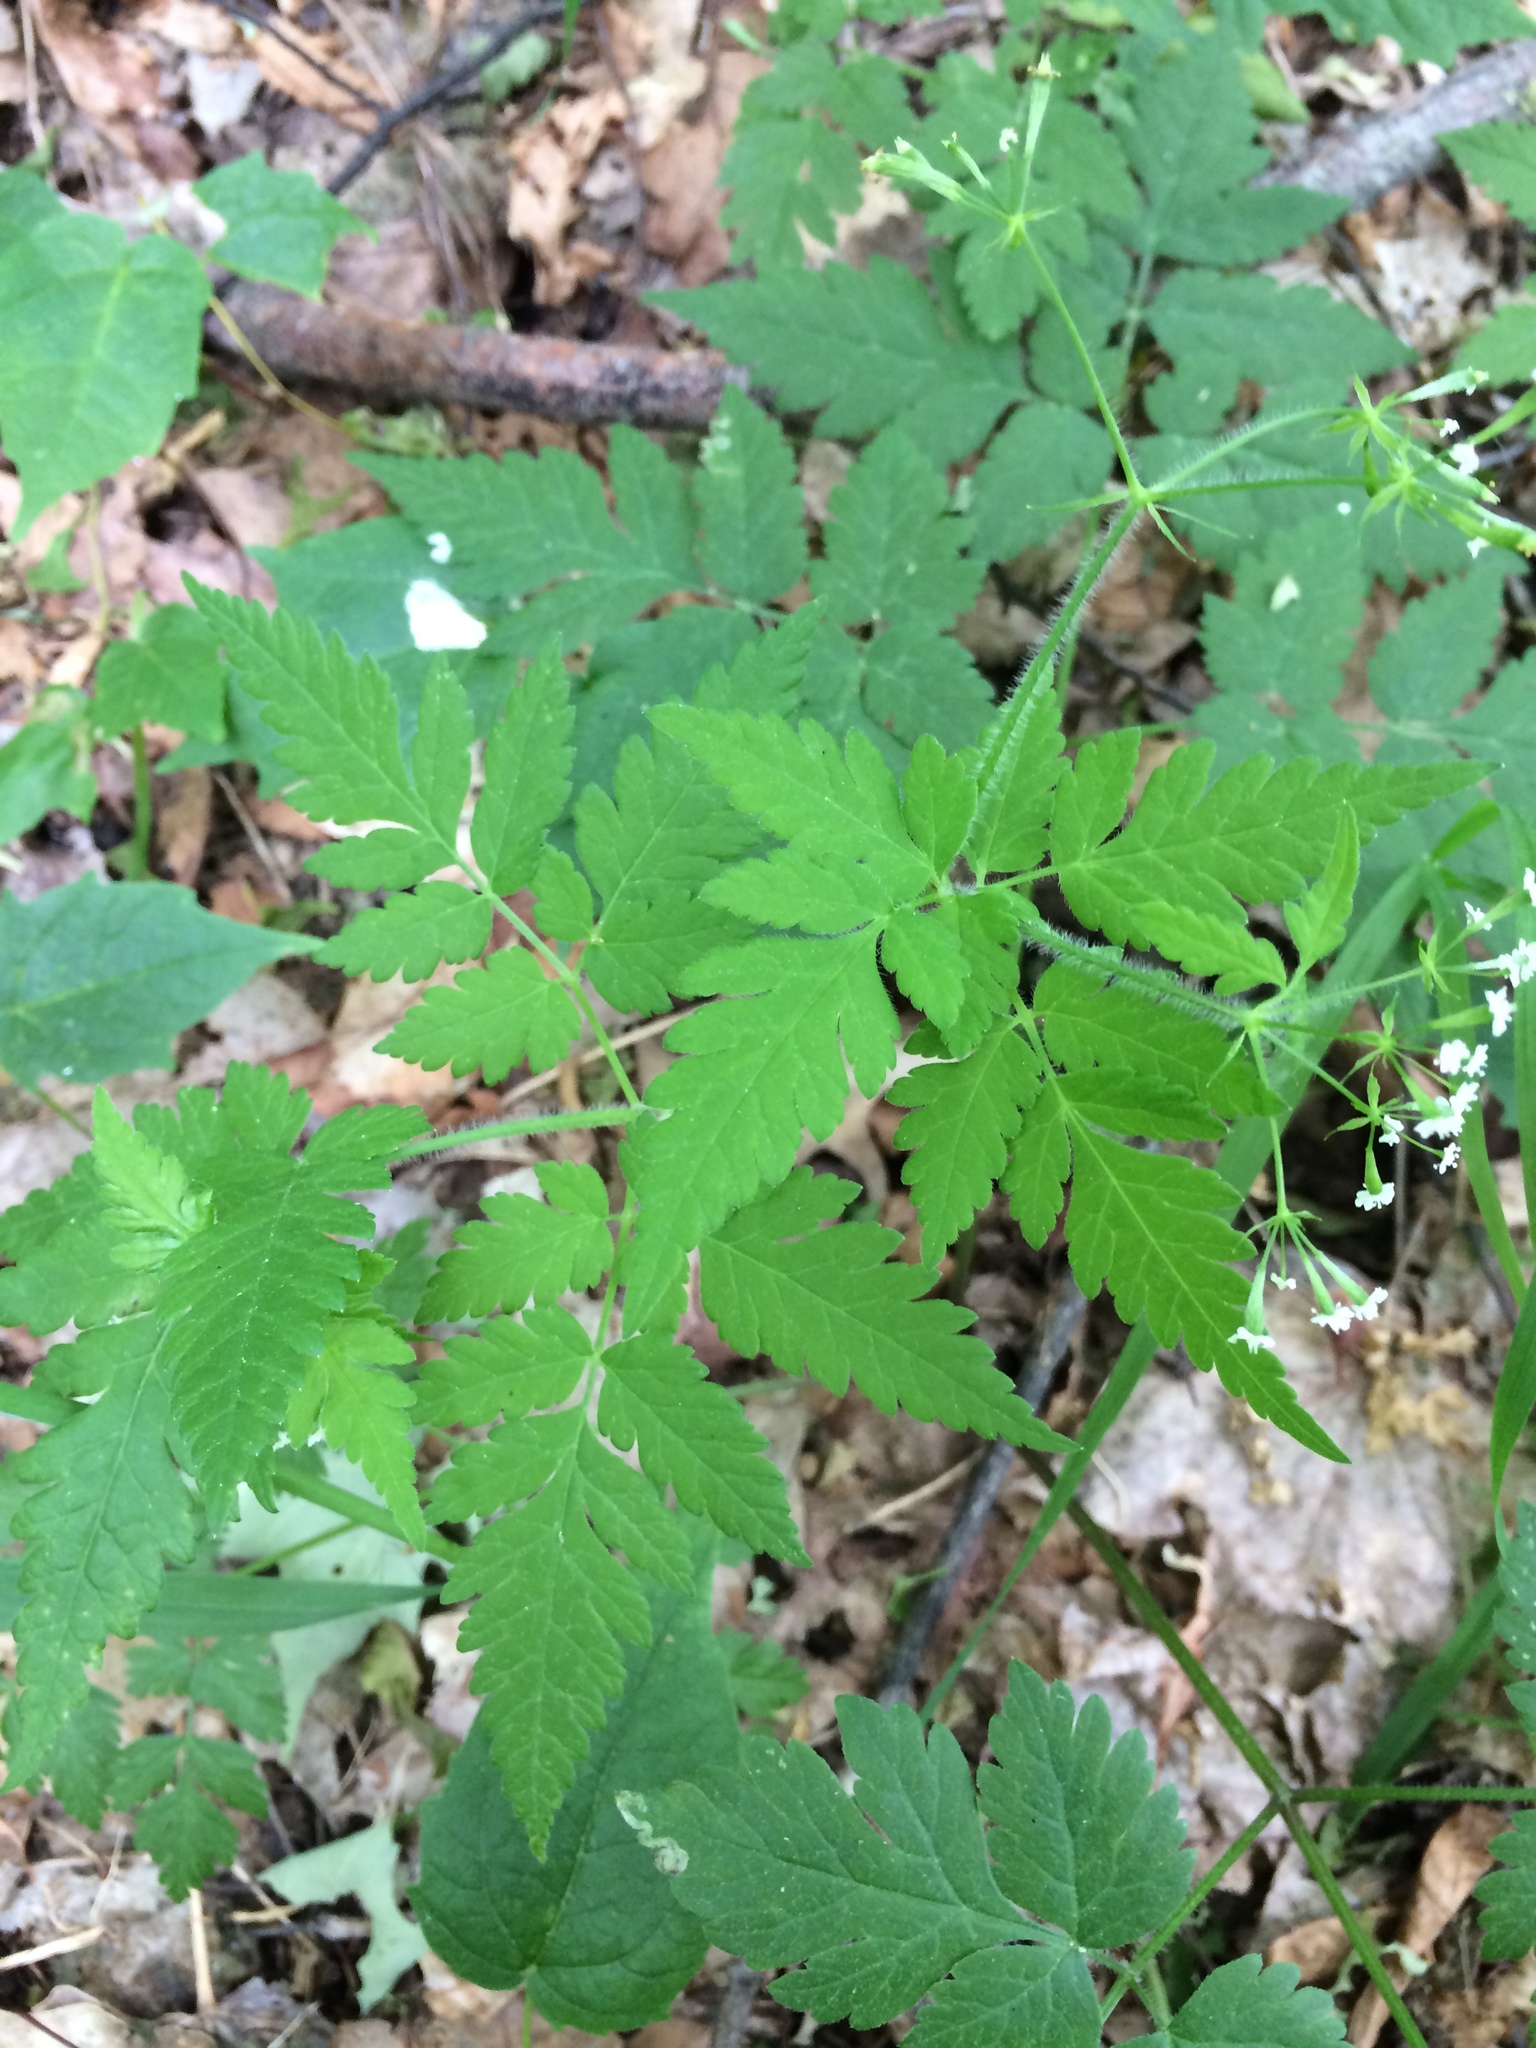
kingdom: Plantae
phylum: Tracheophyta
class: Magnoliopsida
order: Apiales
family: Apiaceae
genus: Osmorhiza
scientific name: Osmorhiza claytonii
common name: Hairy sweet cicely
